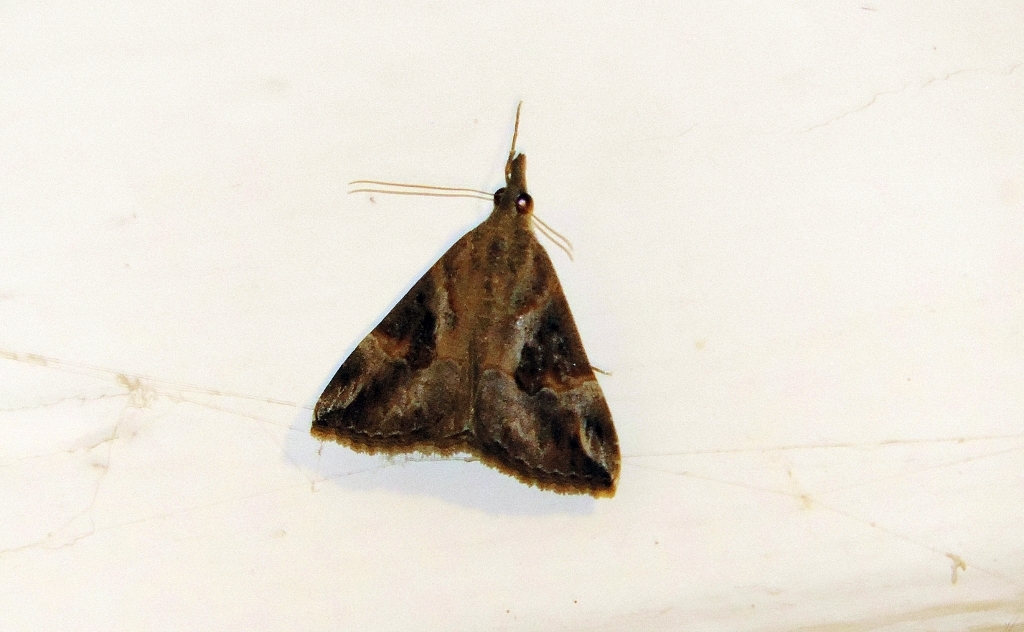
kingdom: Animalia
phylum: Arthropoda
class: Insecta
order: Lepidoptera
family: Erebidae
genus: Hypena
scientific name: Hypena commixtalis
